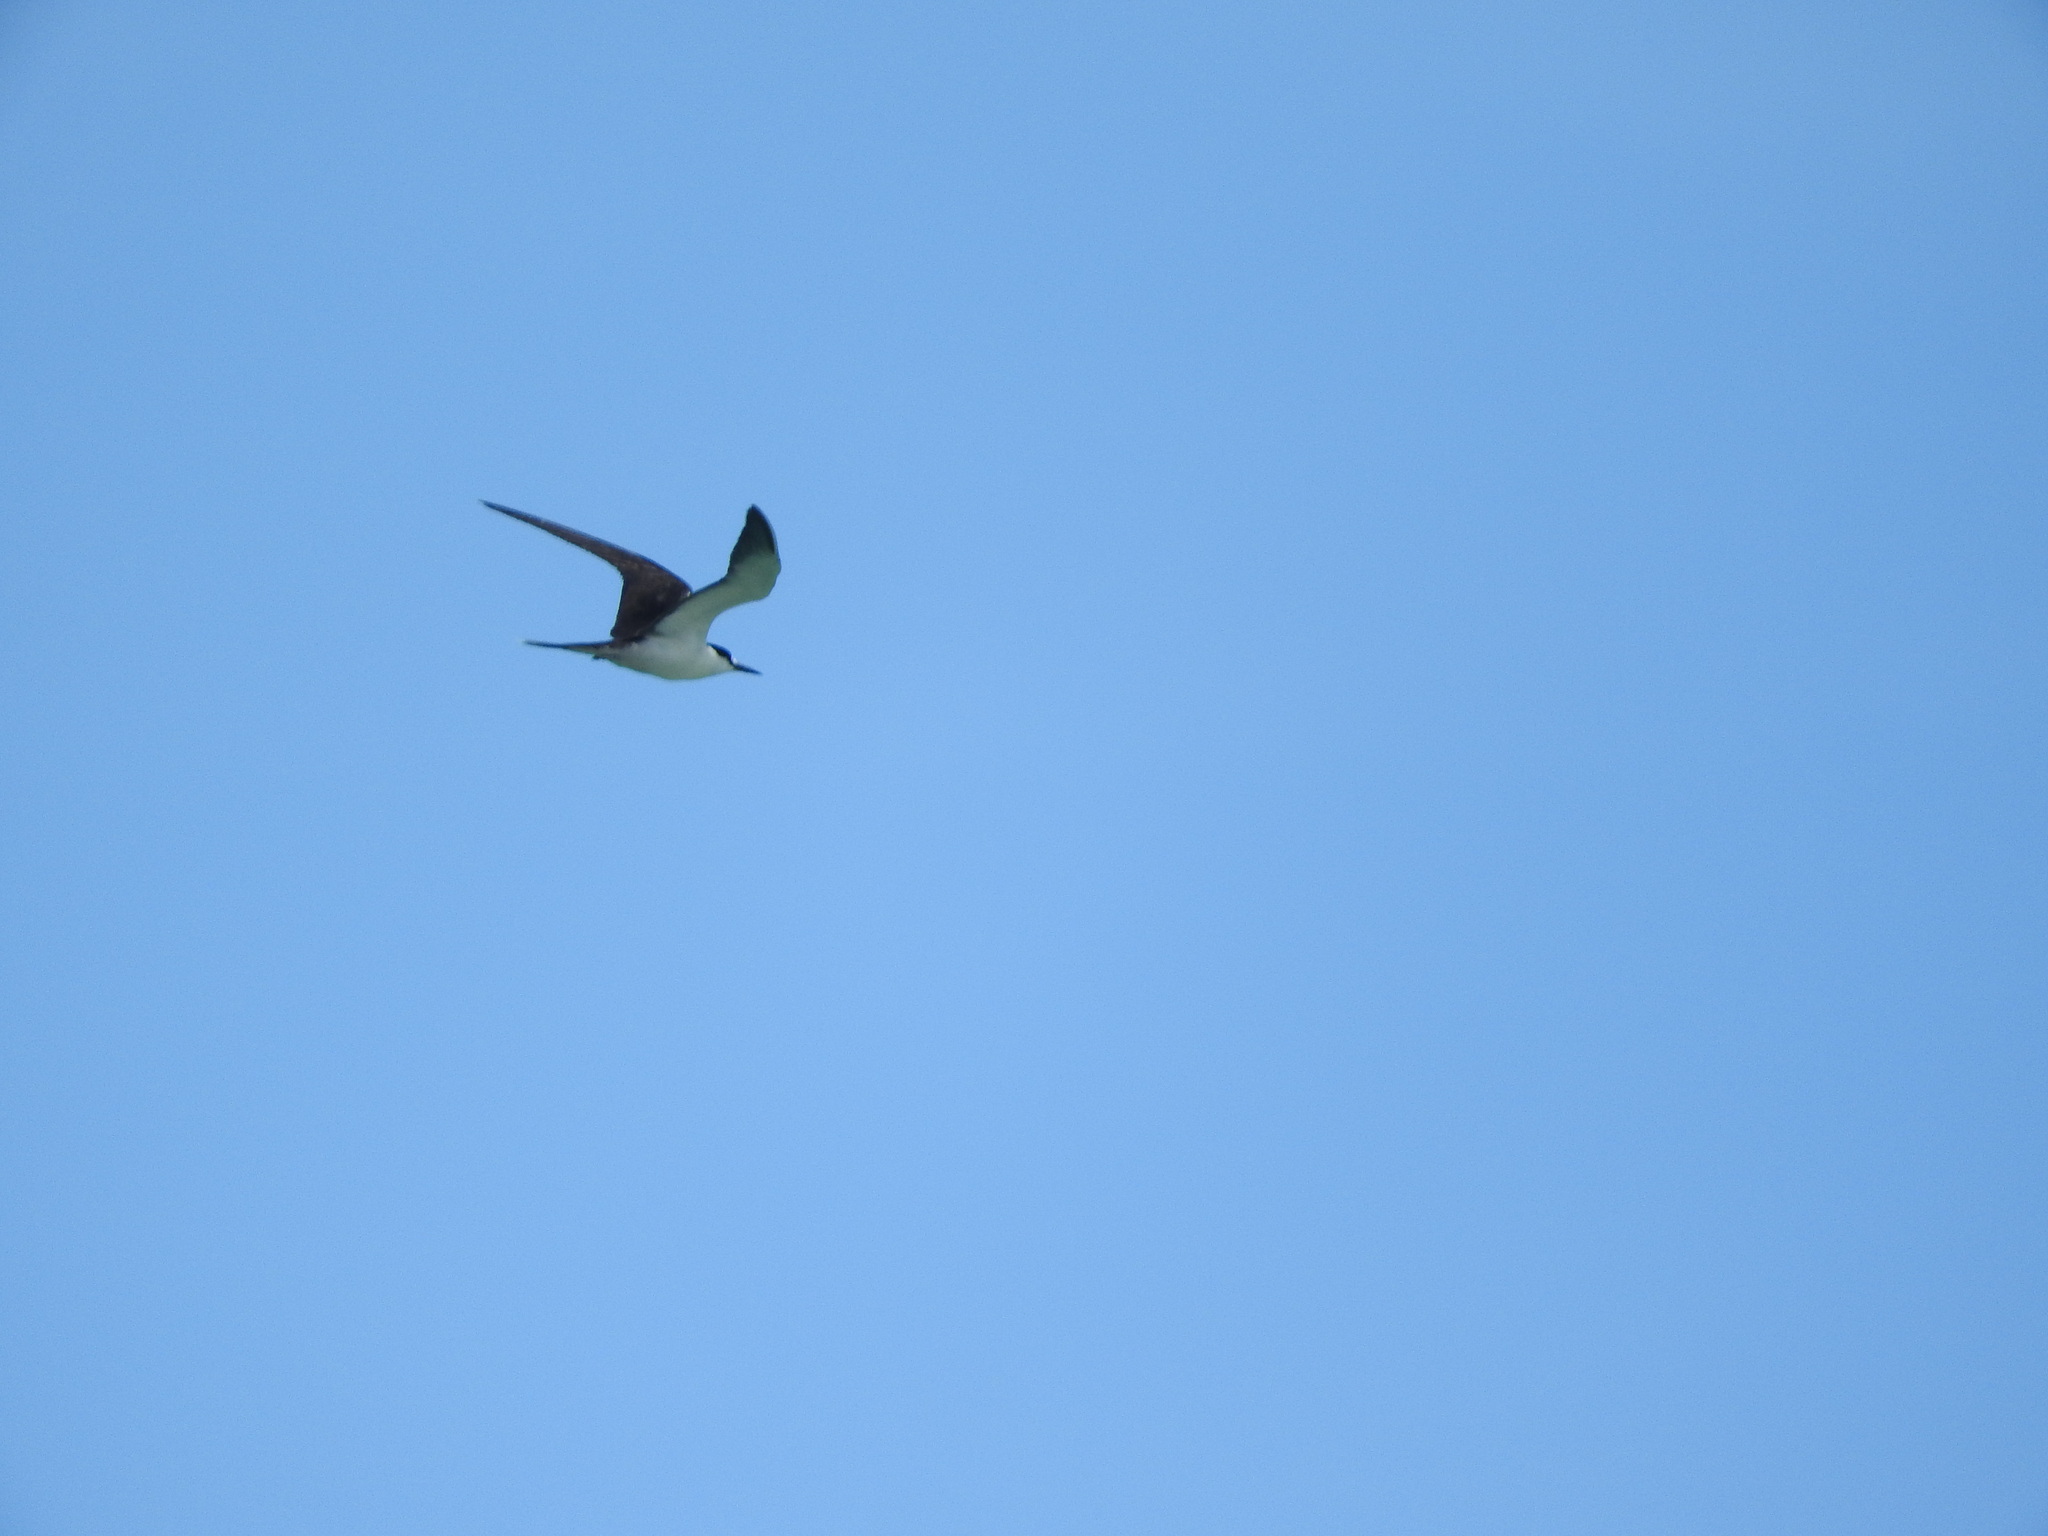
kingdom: Animalia
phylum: Chordata
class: Aves
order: Charadriiformes
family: Laridae
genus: Onychoprion
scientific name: Onychoprion anaethetus
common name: Bridled tern
